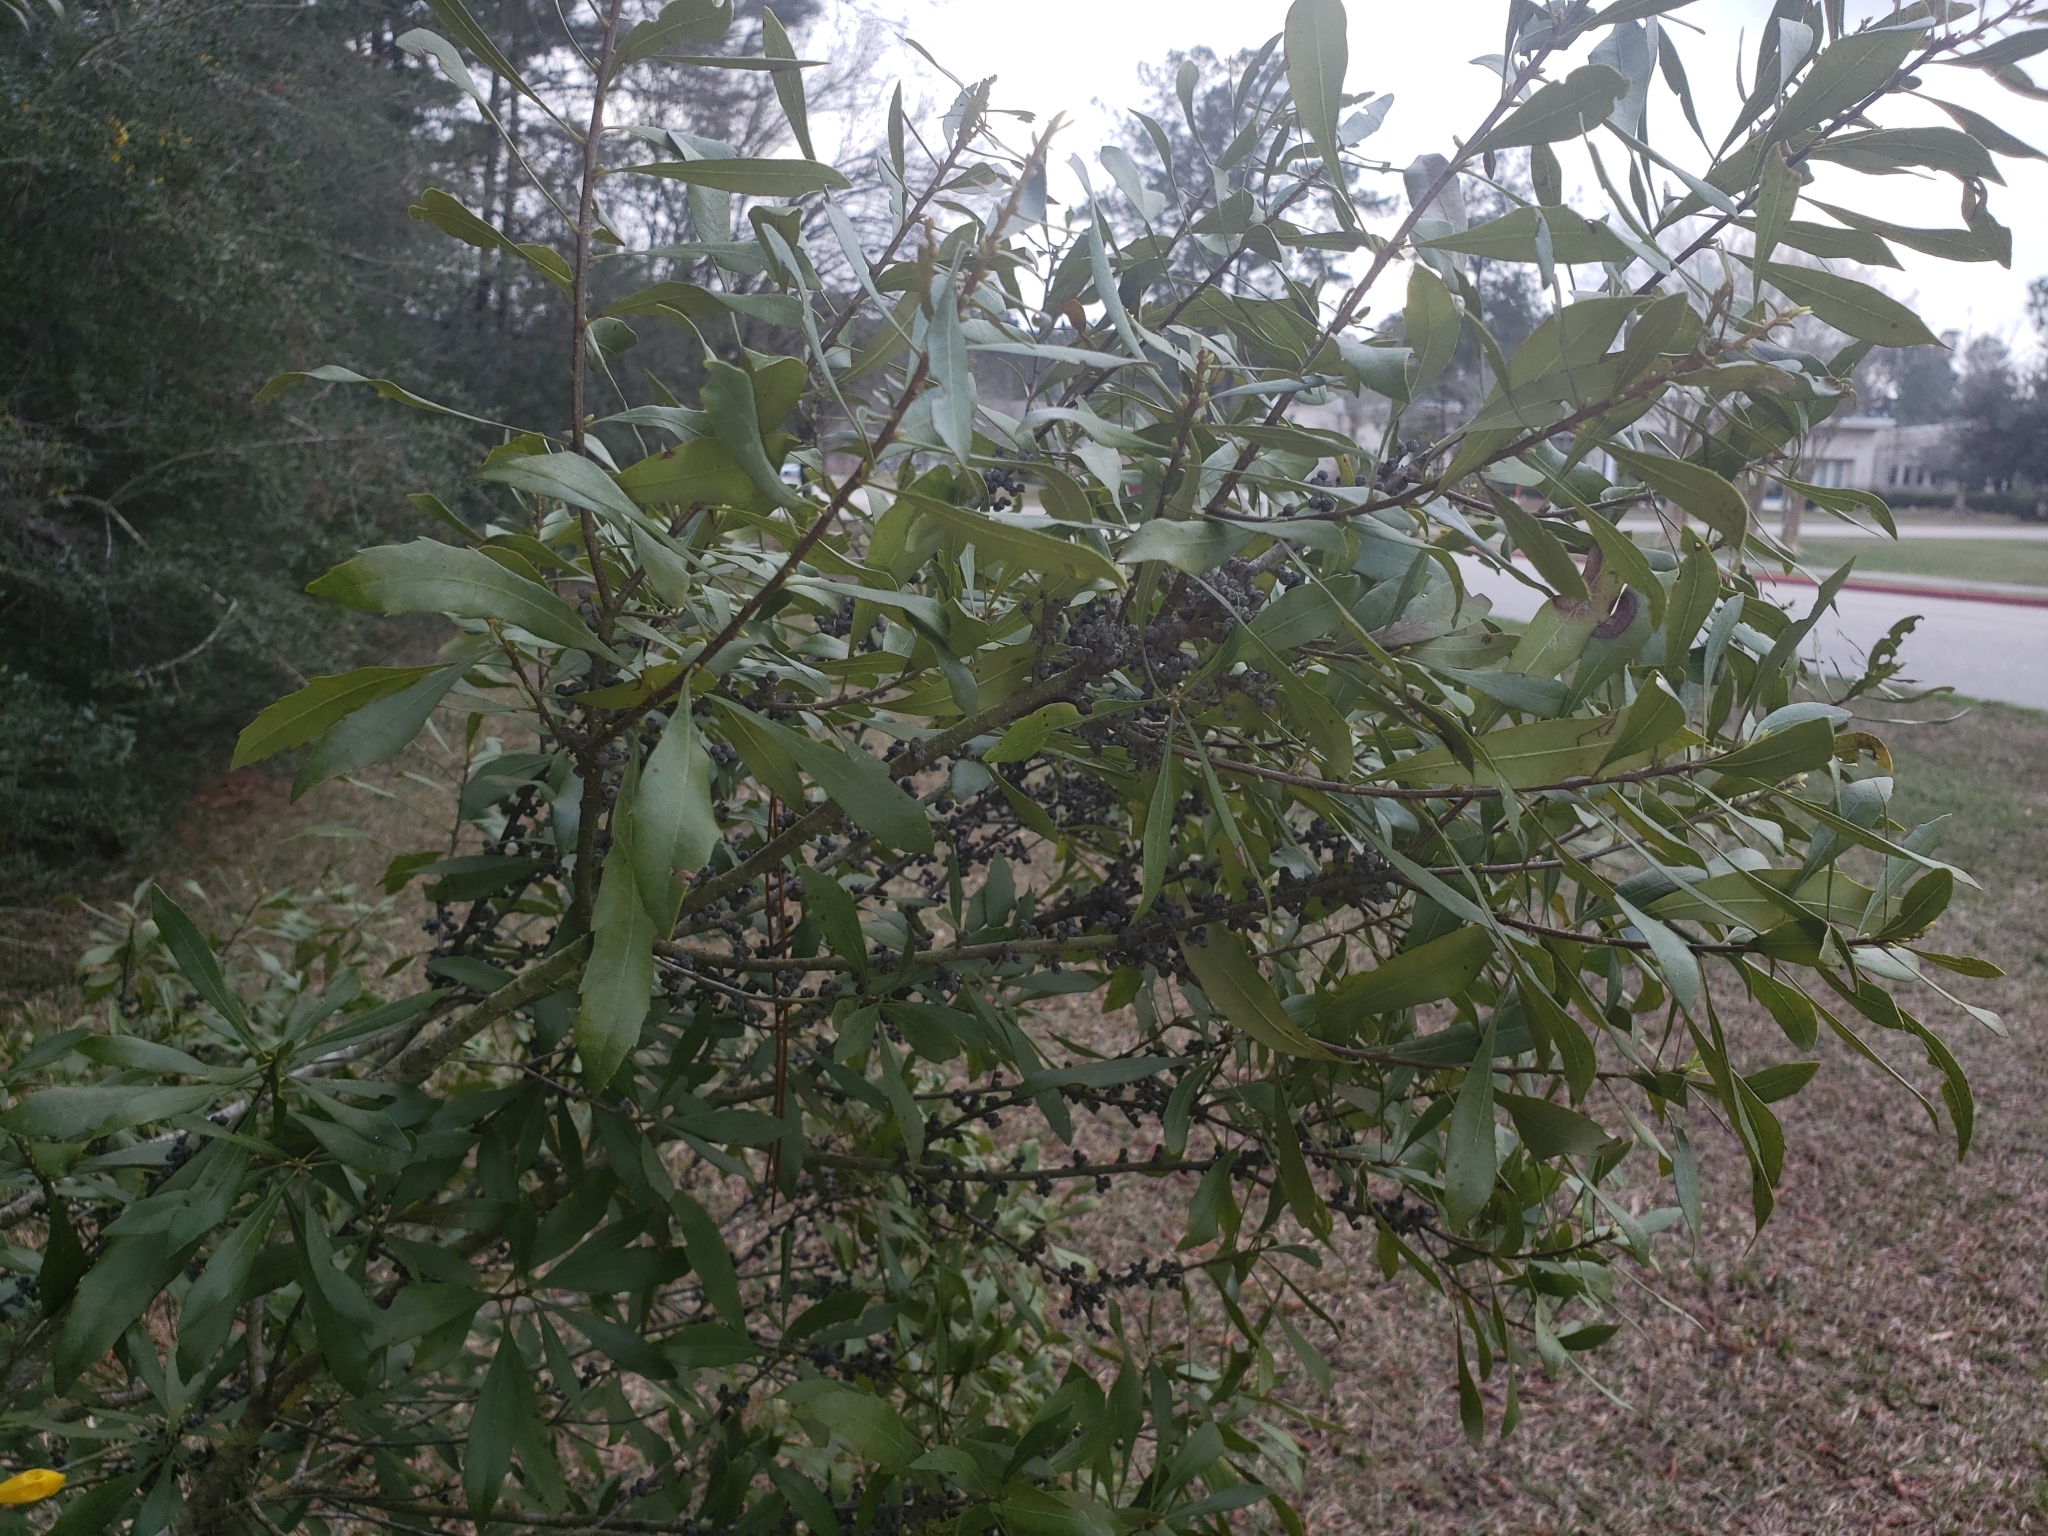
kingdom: Plantae
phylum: Tracheophyta
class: Magnoliopsida
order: Fagales
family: Myricaceae
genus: Morella
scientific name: Morella cerifera
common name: Wax myrtle
